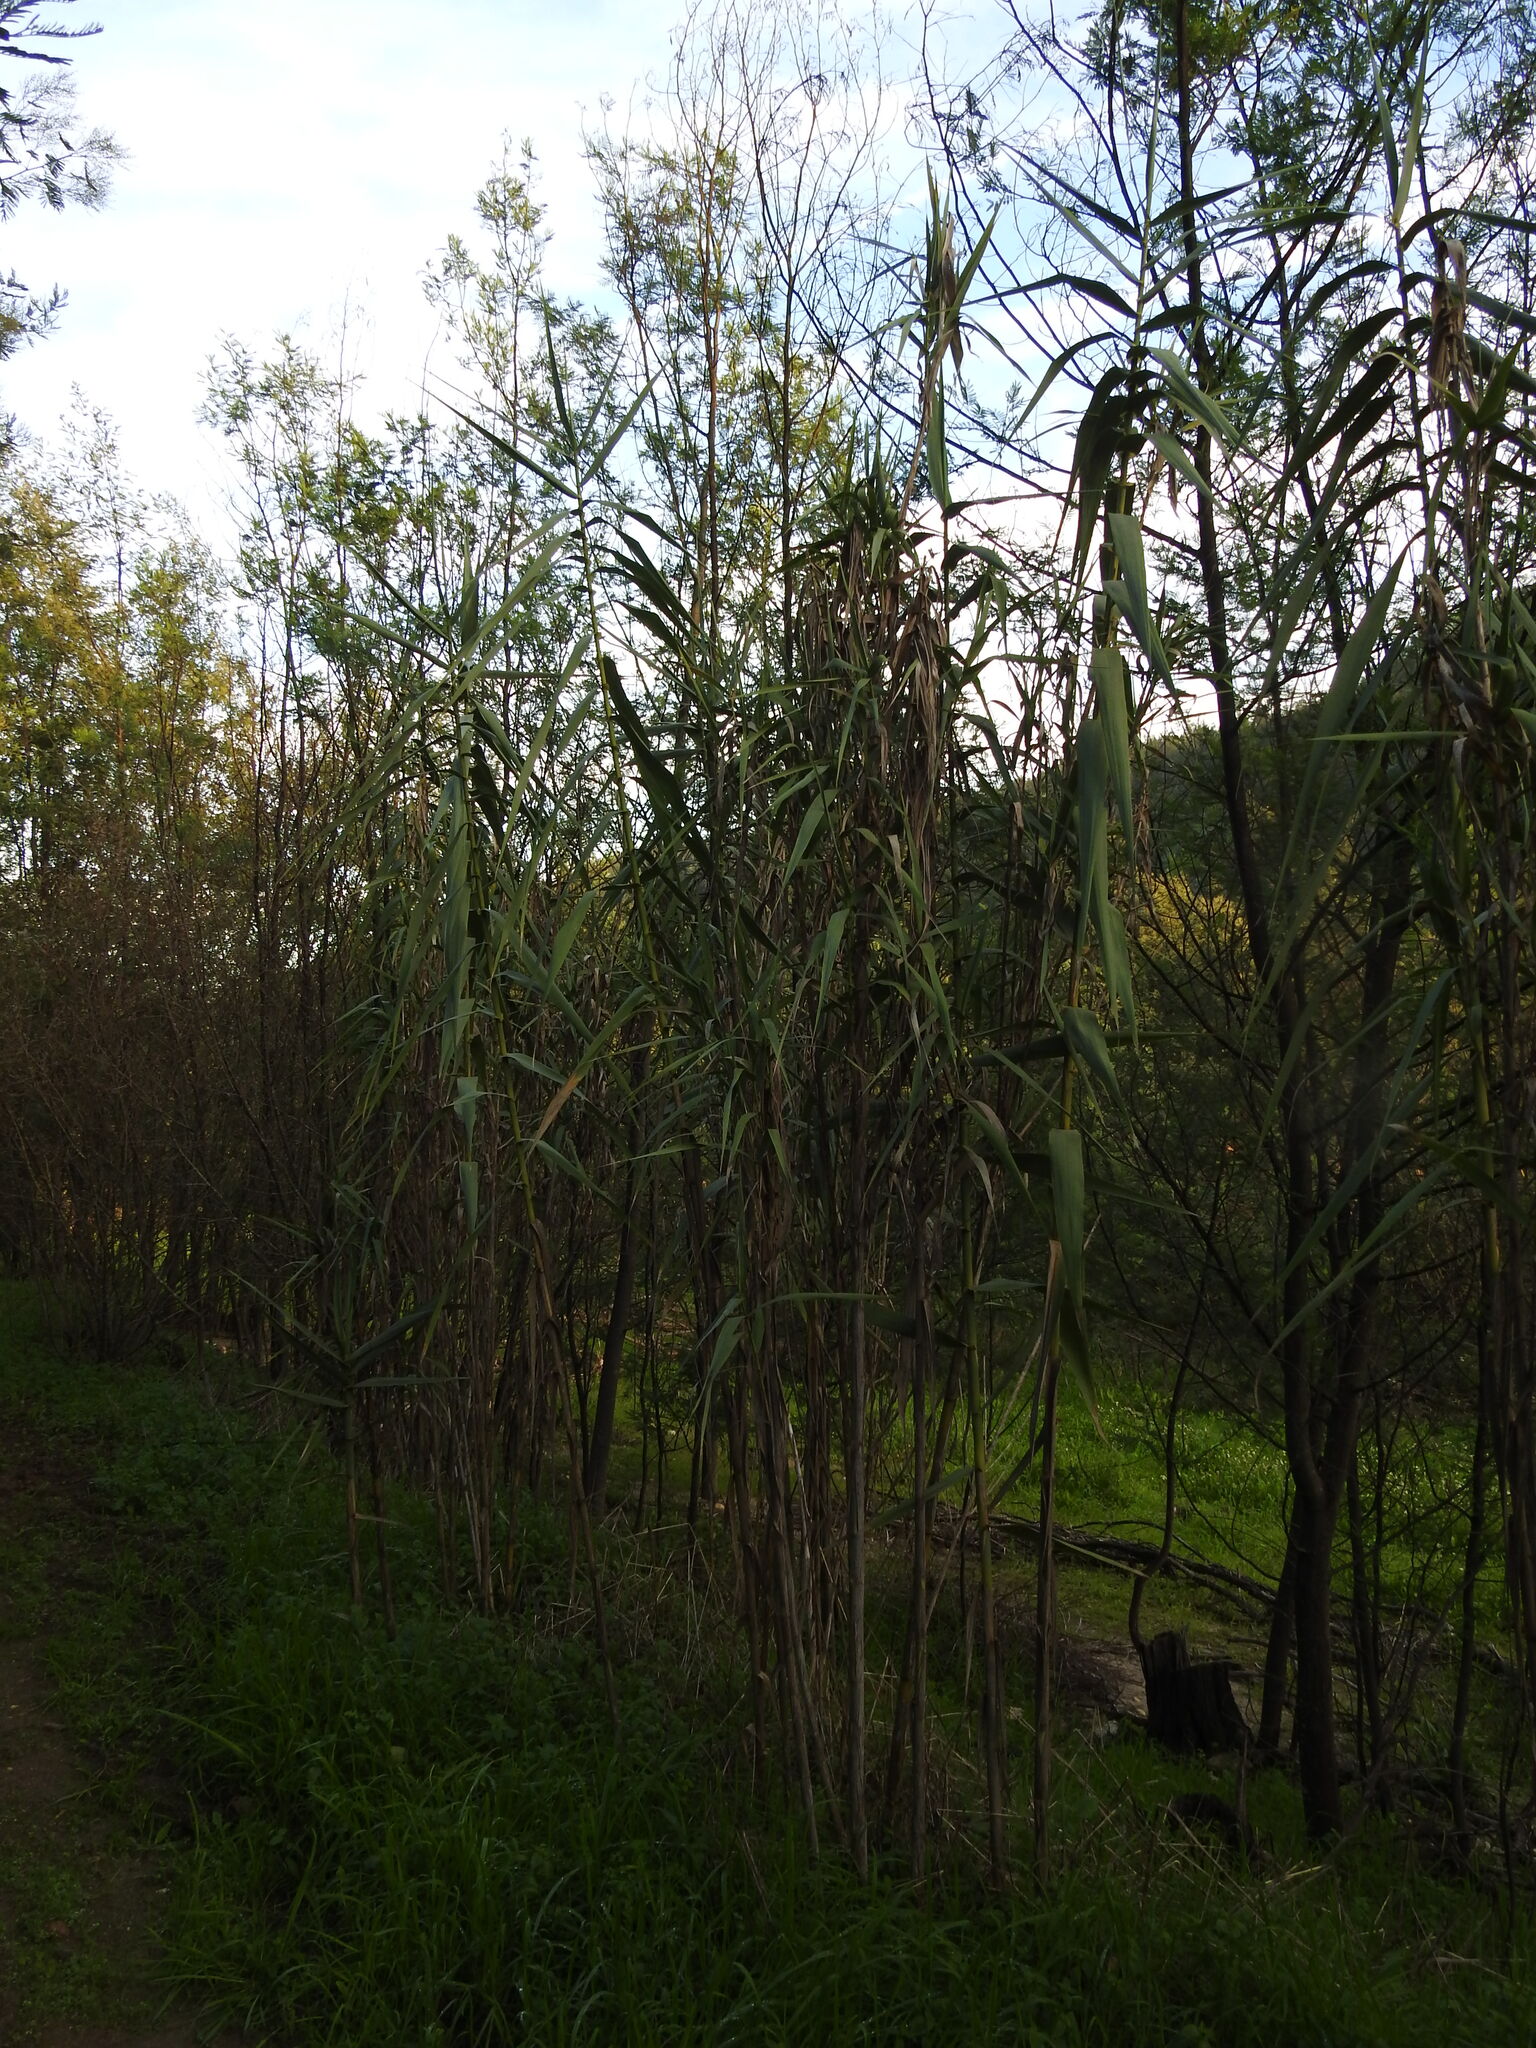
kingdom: Plantae
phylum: Tracheophyta
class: Liliopsida
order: Poales
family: Poaceae
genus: Arundo
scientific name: Arundo donax
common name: Giant reed
